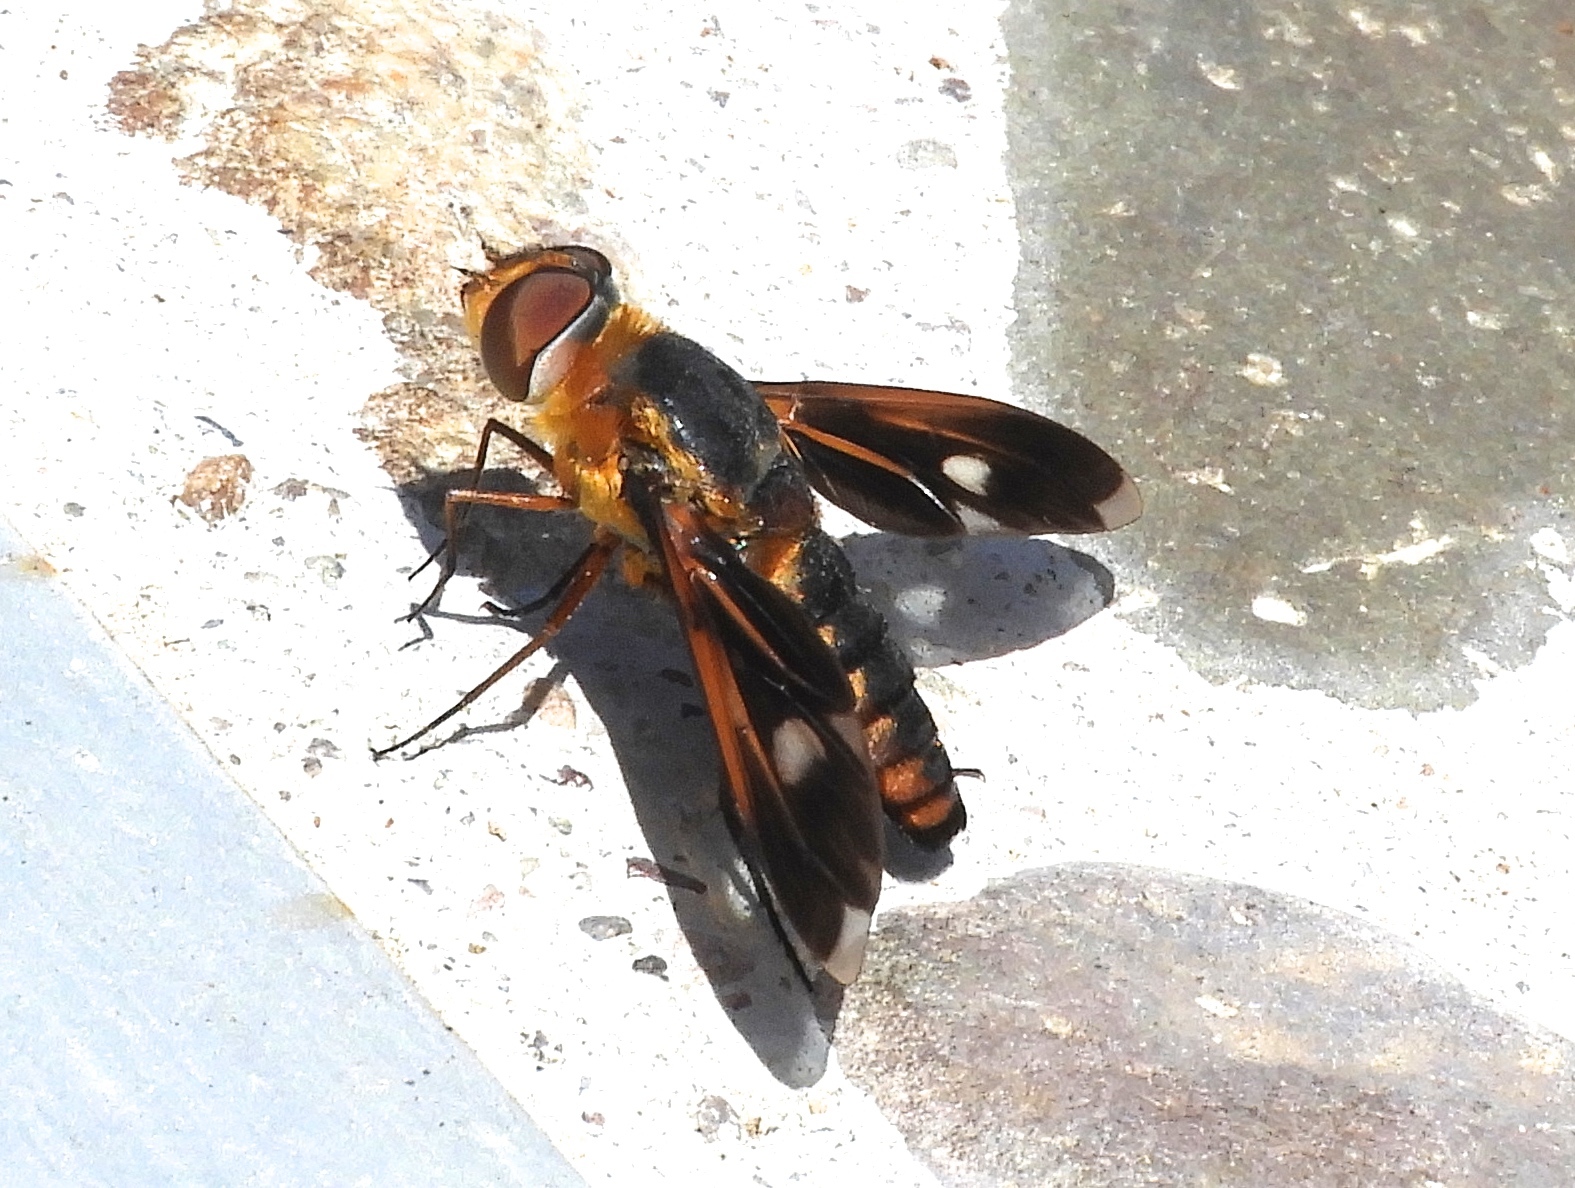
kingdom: Animalia
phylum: Arthropoda
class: Insecta
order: Diptera
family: Bombyliidae
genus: Poecilanthrax
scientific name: Poecilanthrax effrenus
